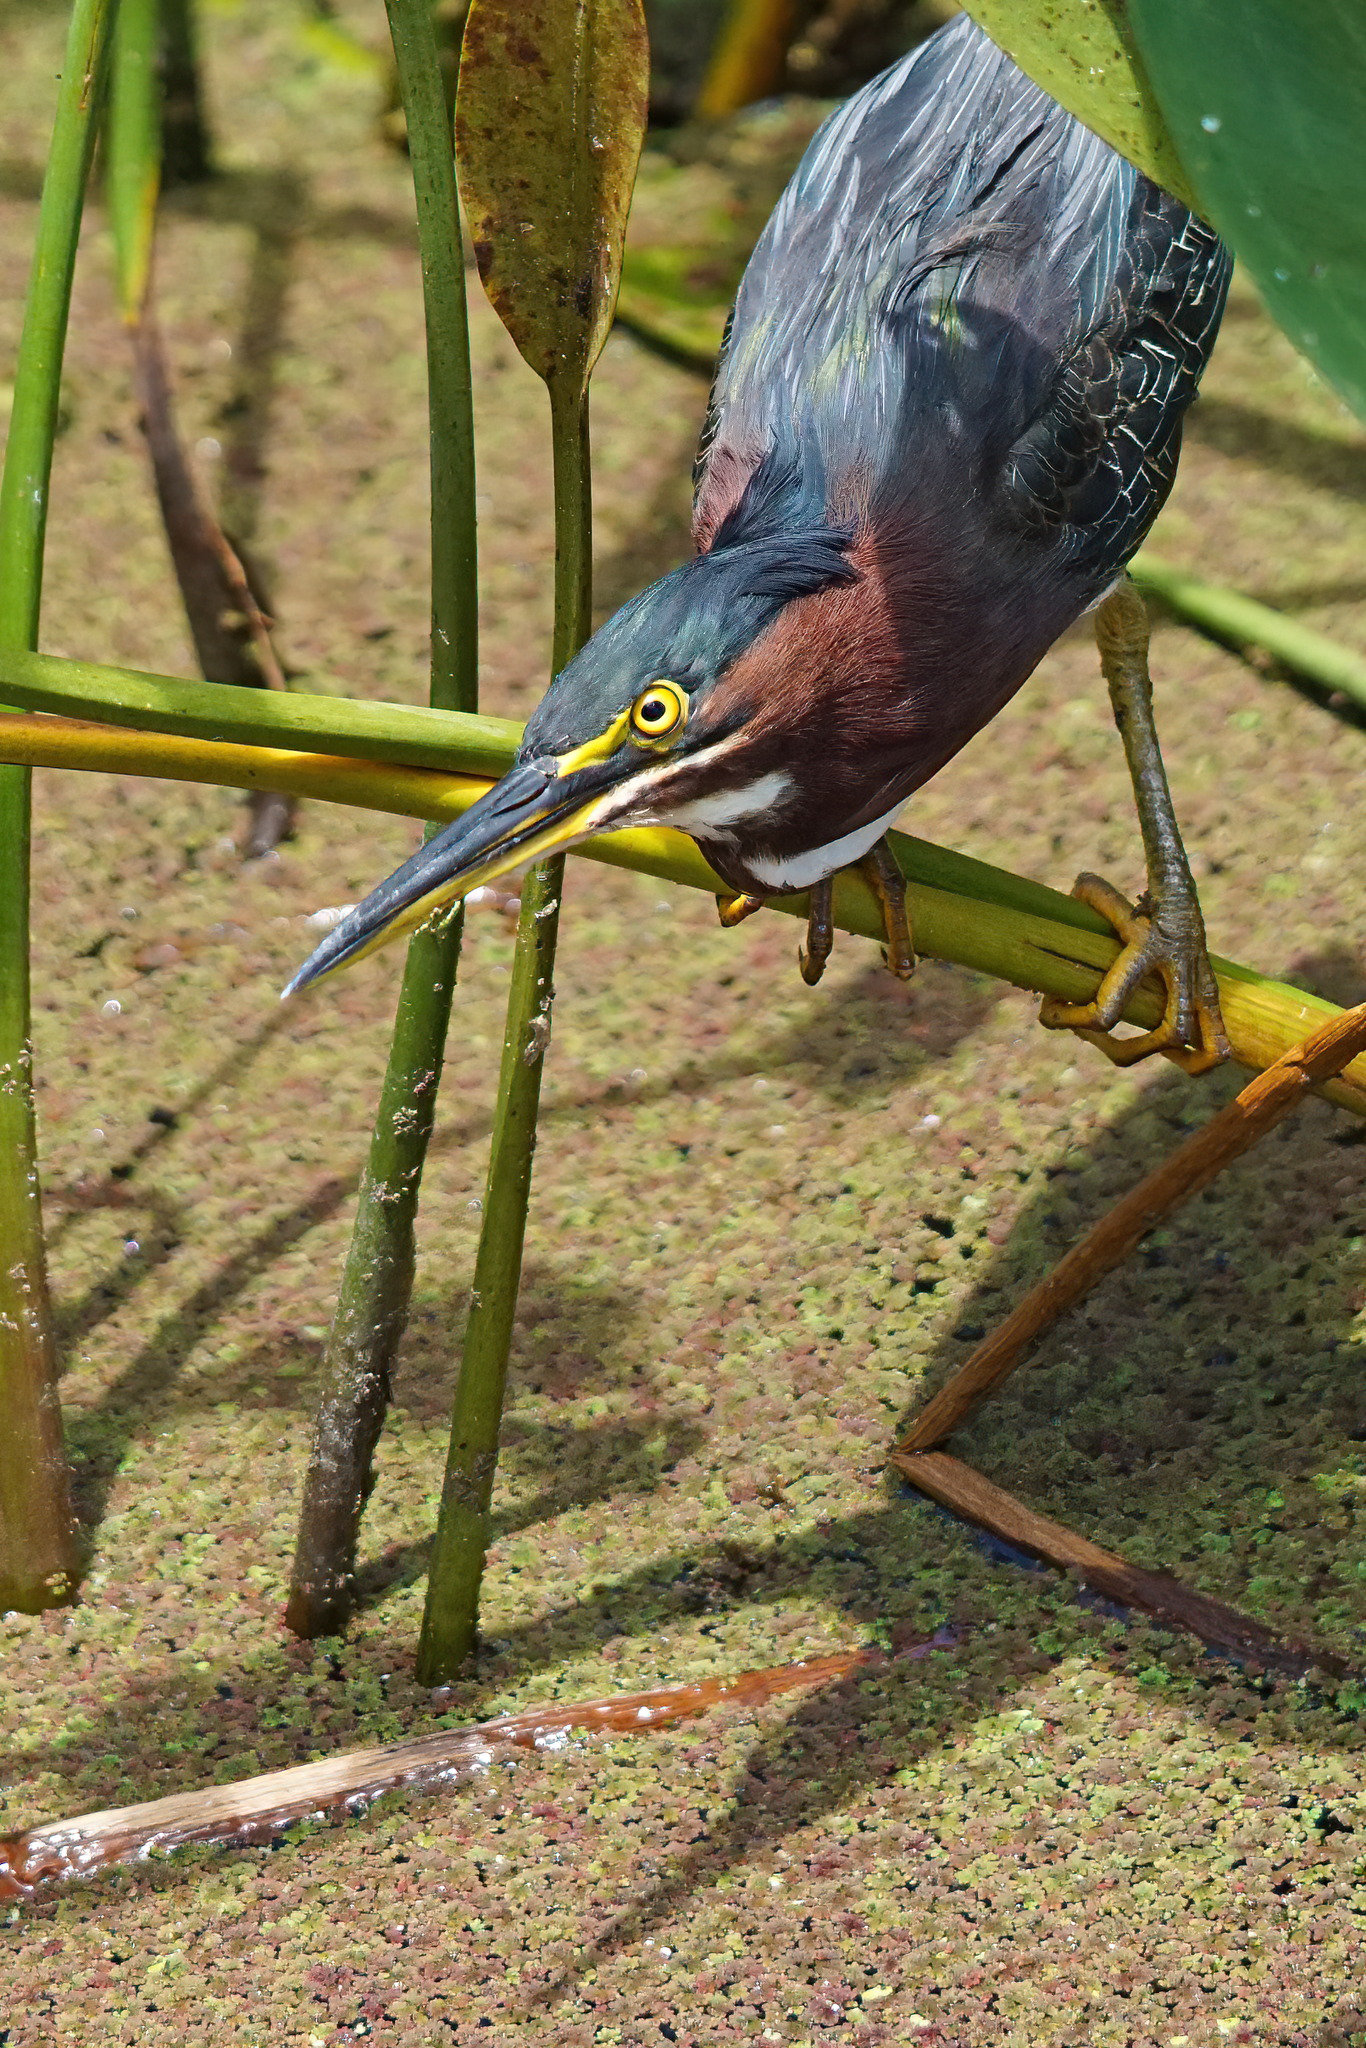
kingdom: Animalia
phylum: Chordata
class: Aves
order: Pelecaniformes
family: Ardeidae
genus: Butorides
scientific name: Butorides virescens
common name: Green heron
